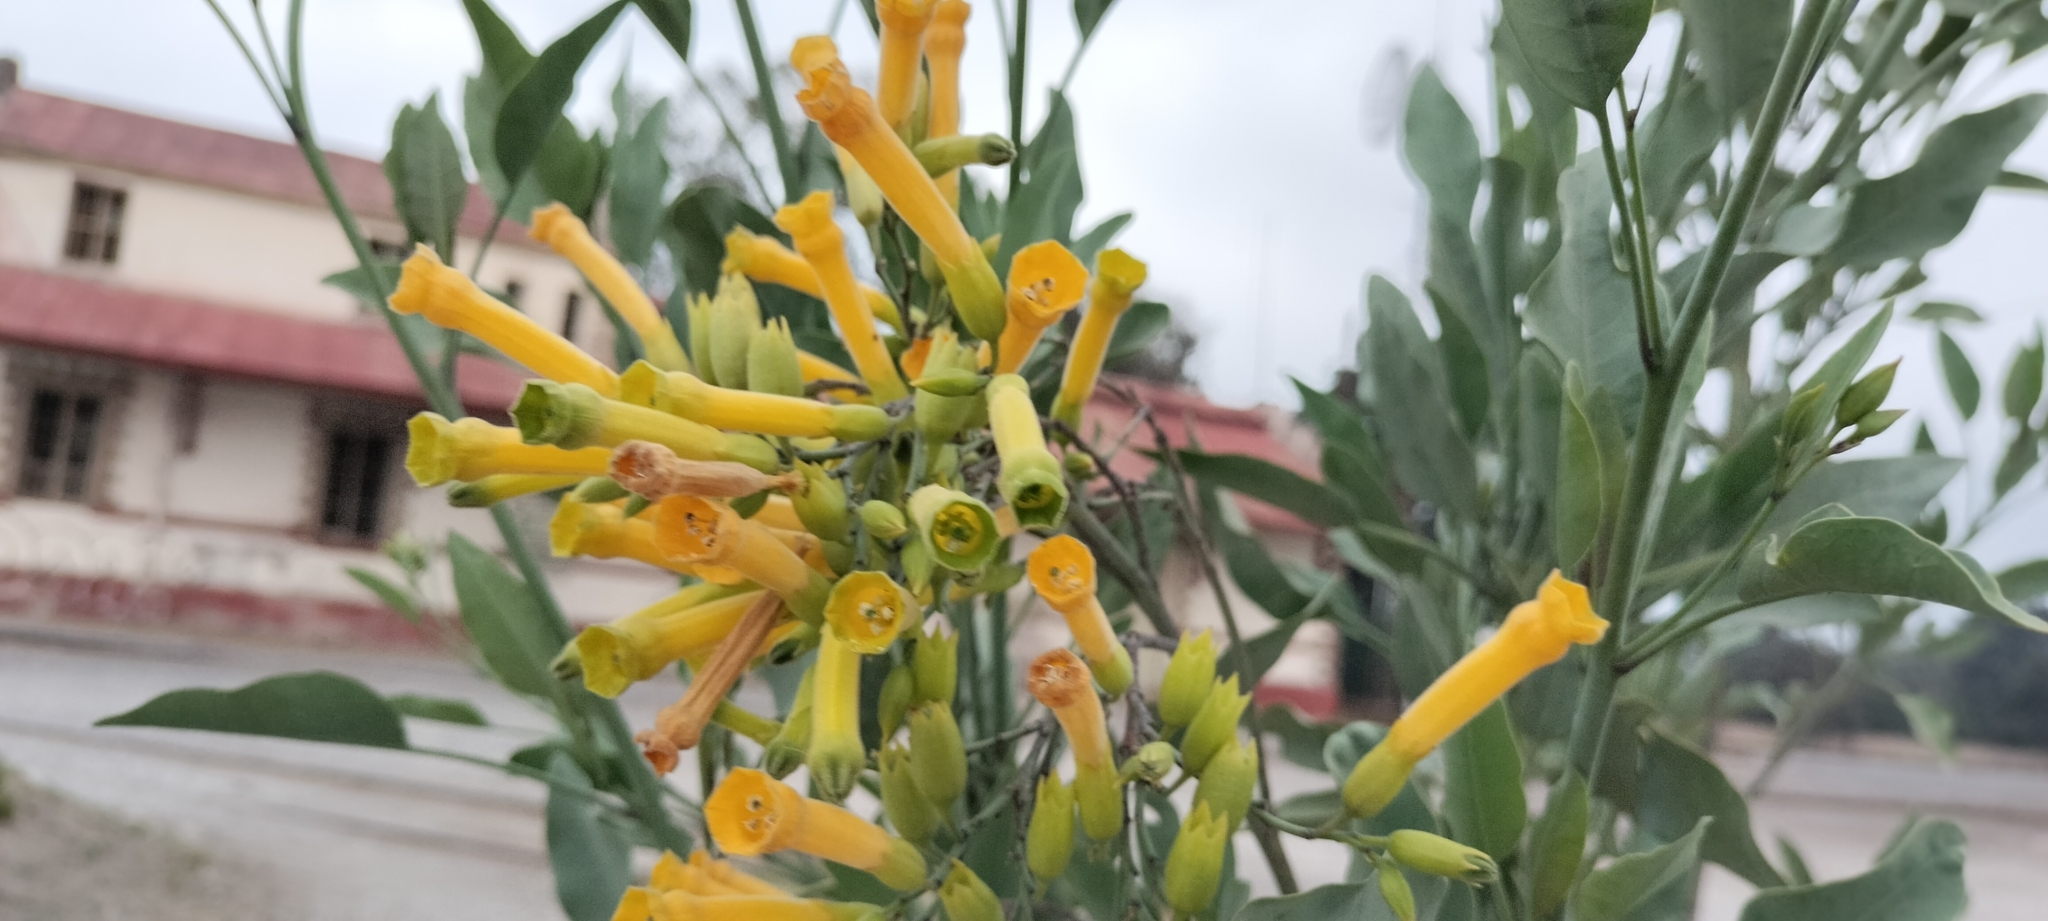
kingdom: Plantae
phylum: Tracheophyta
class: Magnoliopsida
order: Solanales
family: Solanaceae
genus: Nicotiana
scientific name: Nicotiana glauca
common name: Tree tobacco
